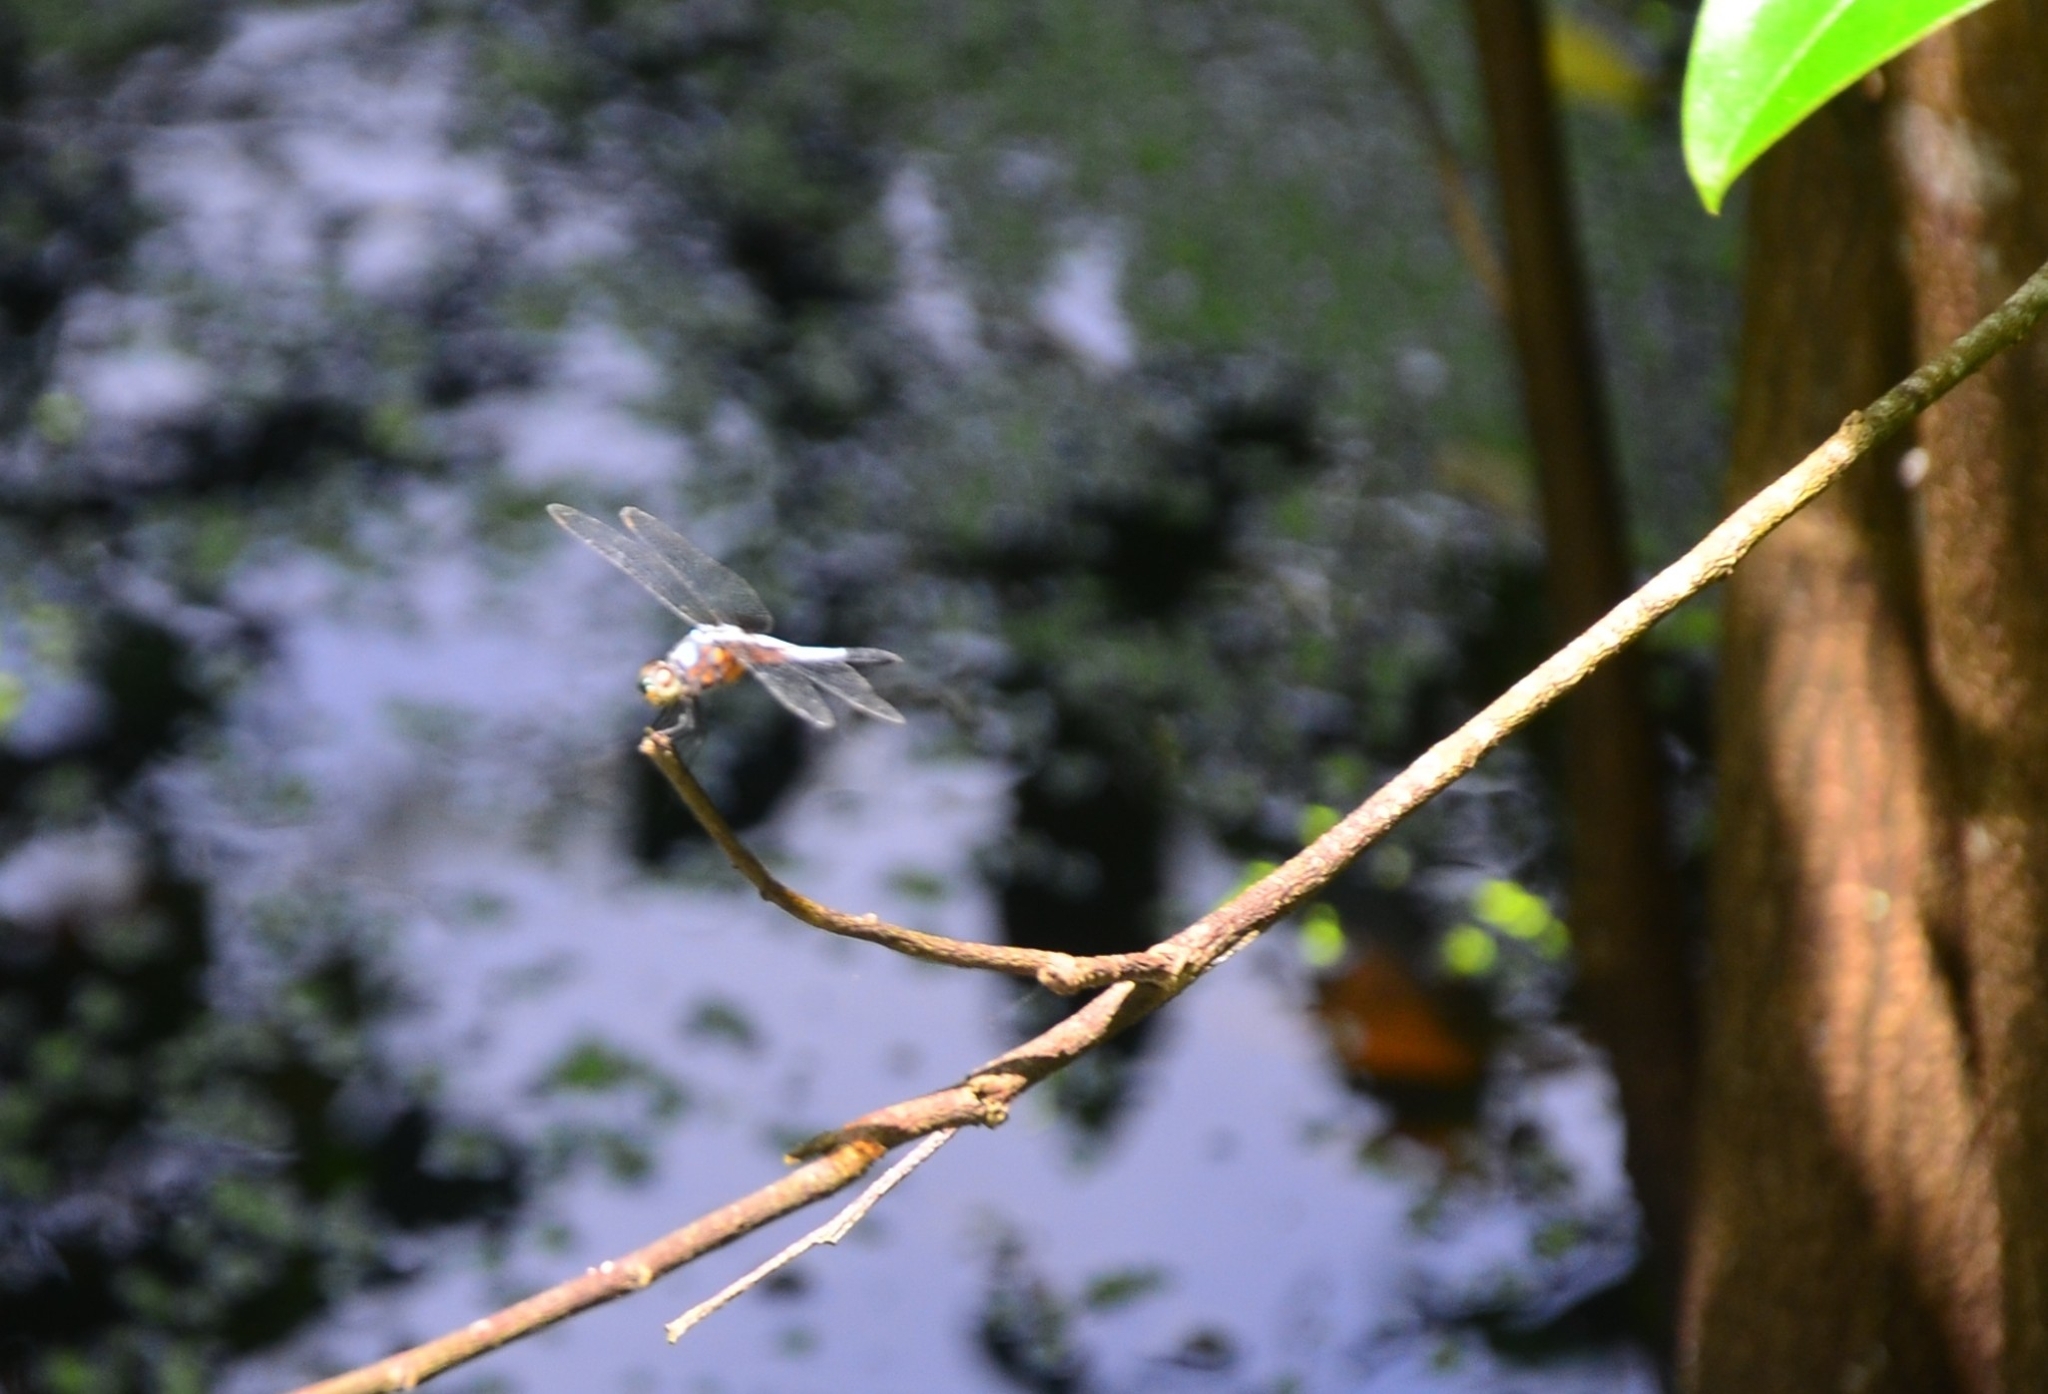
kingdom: Animalia
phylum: Arthropoda
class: Insecta
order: Odonata
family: Libellulidae
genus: Brachydiplax
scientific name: Brachydiplax chalybea
